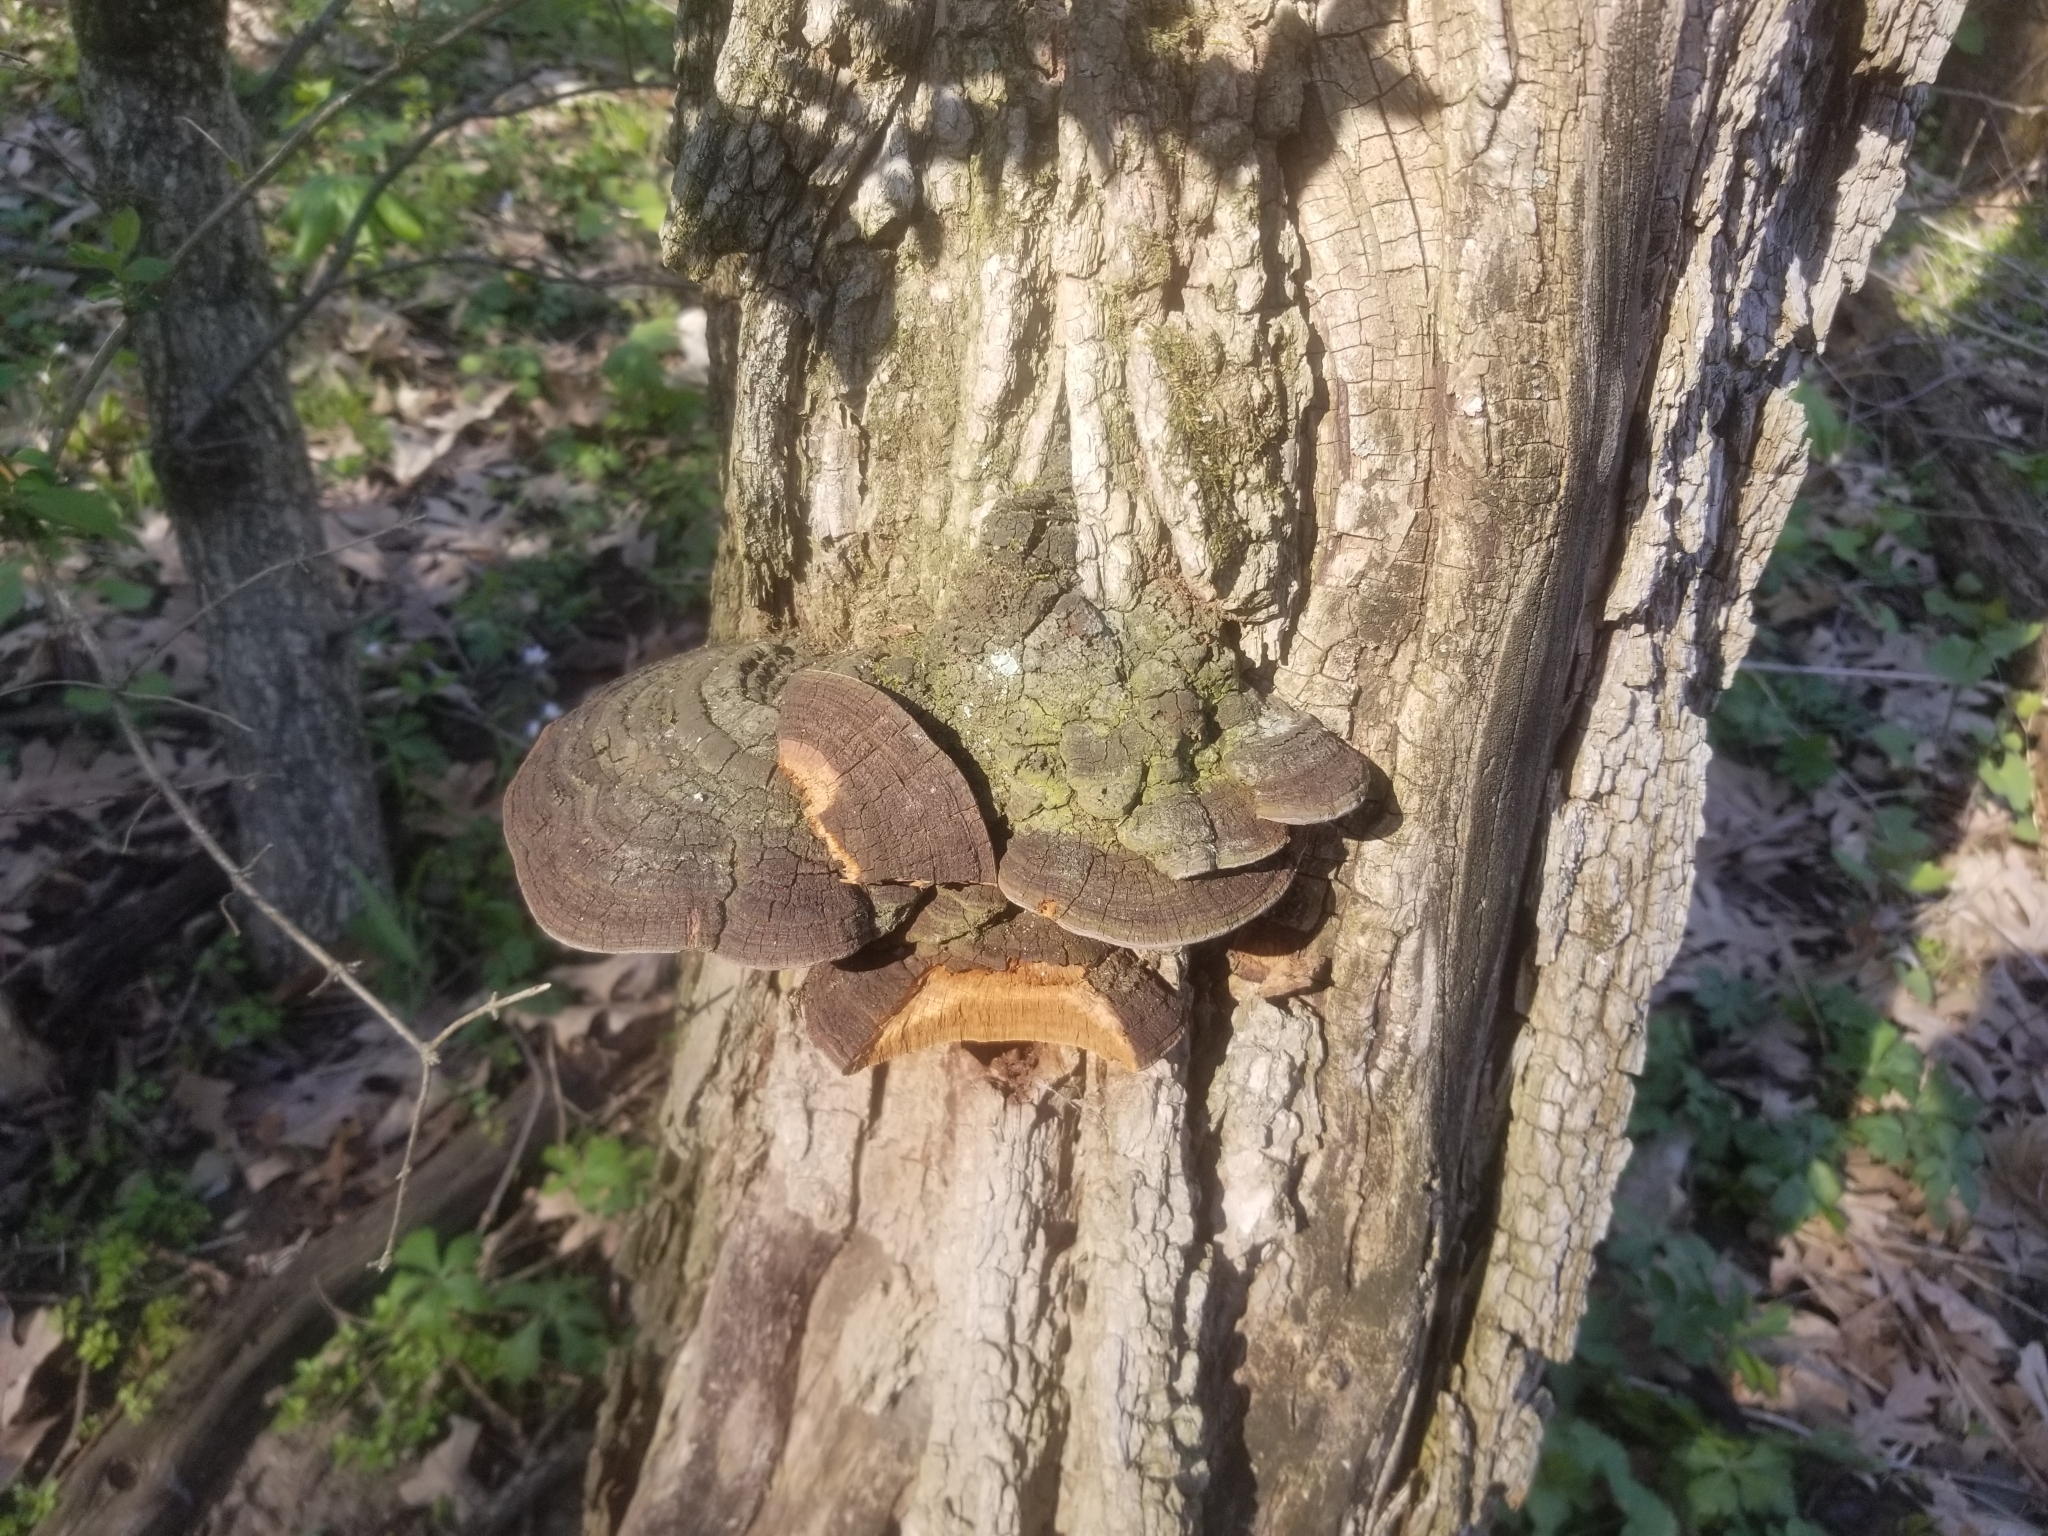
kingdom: Fungi
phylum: Basidiomycota
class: Agaricomycetes
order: Hymenochaetales
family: Hymenochaetaceae
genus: Phellinus
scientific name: Phellinus robiniae
